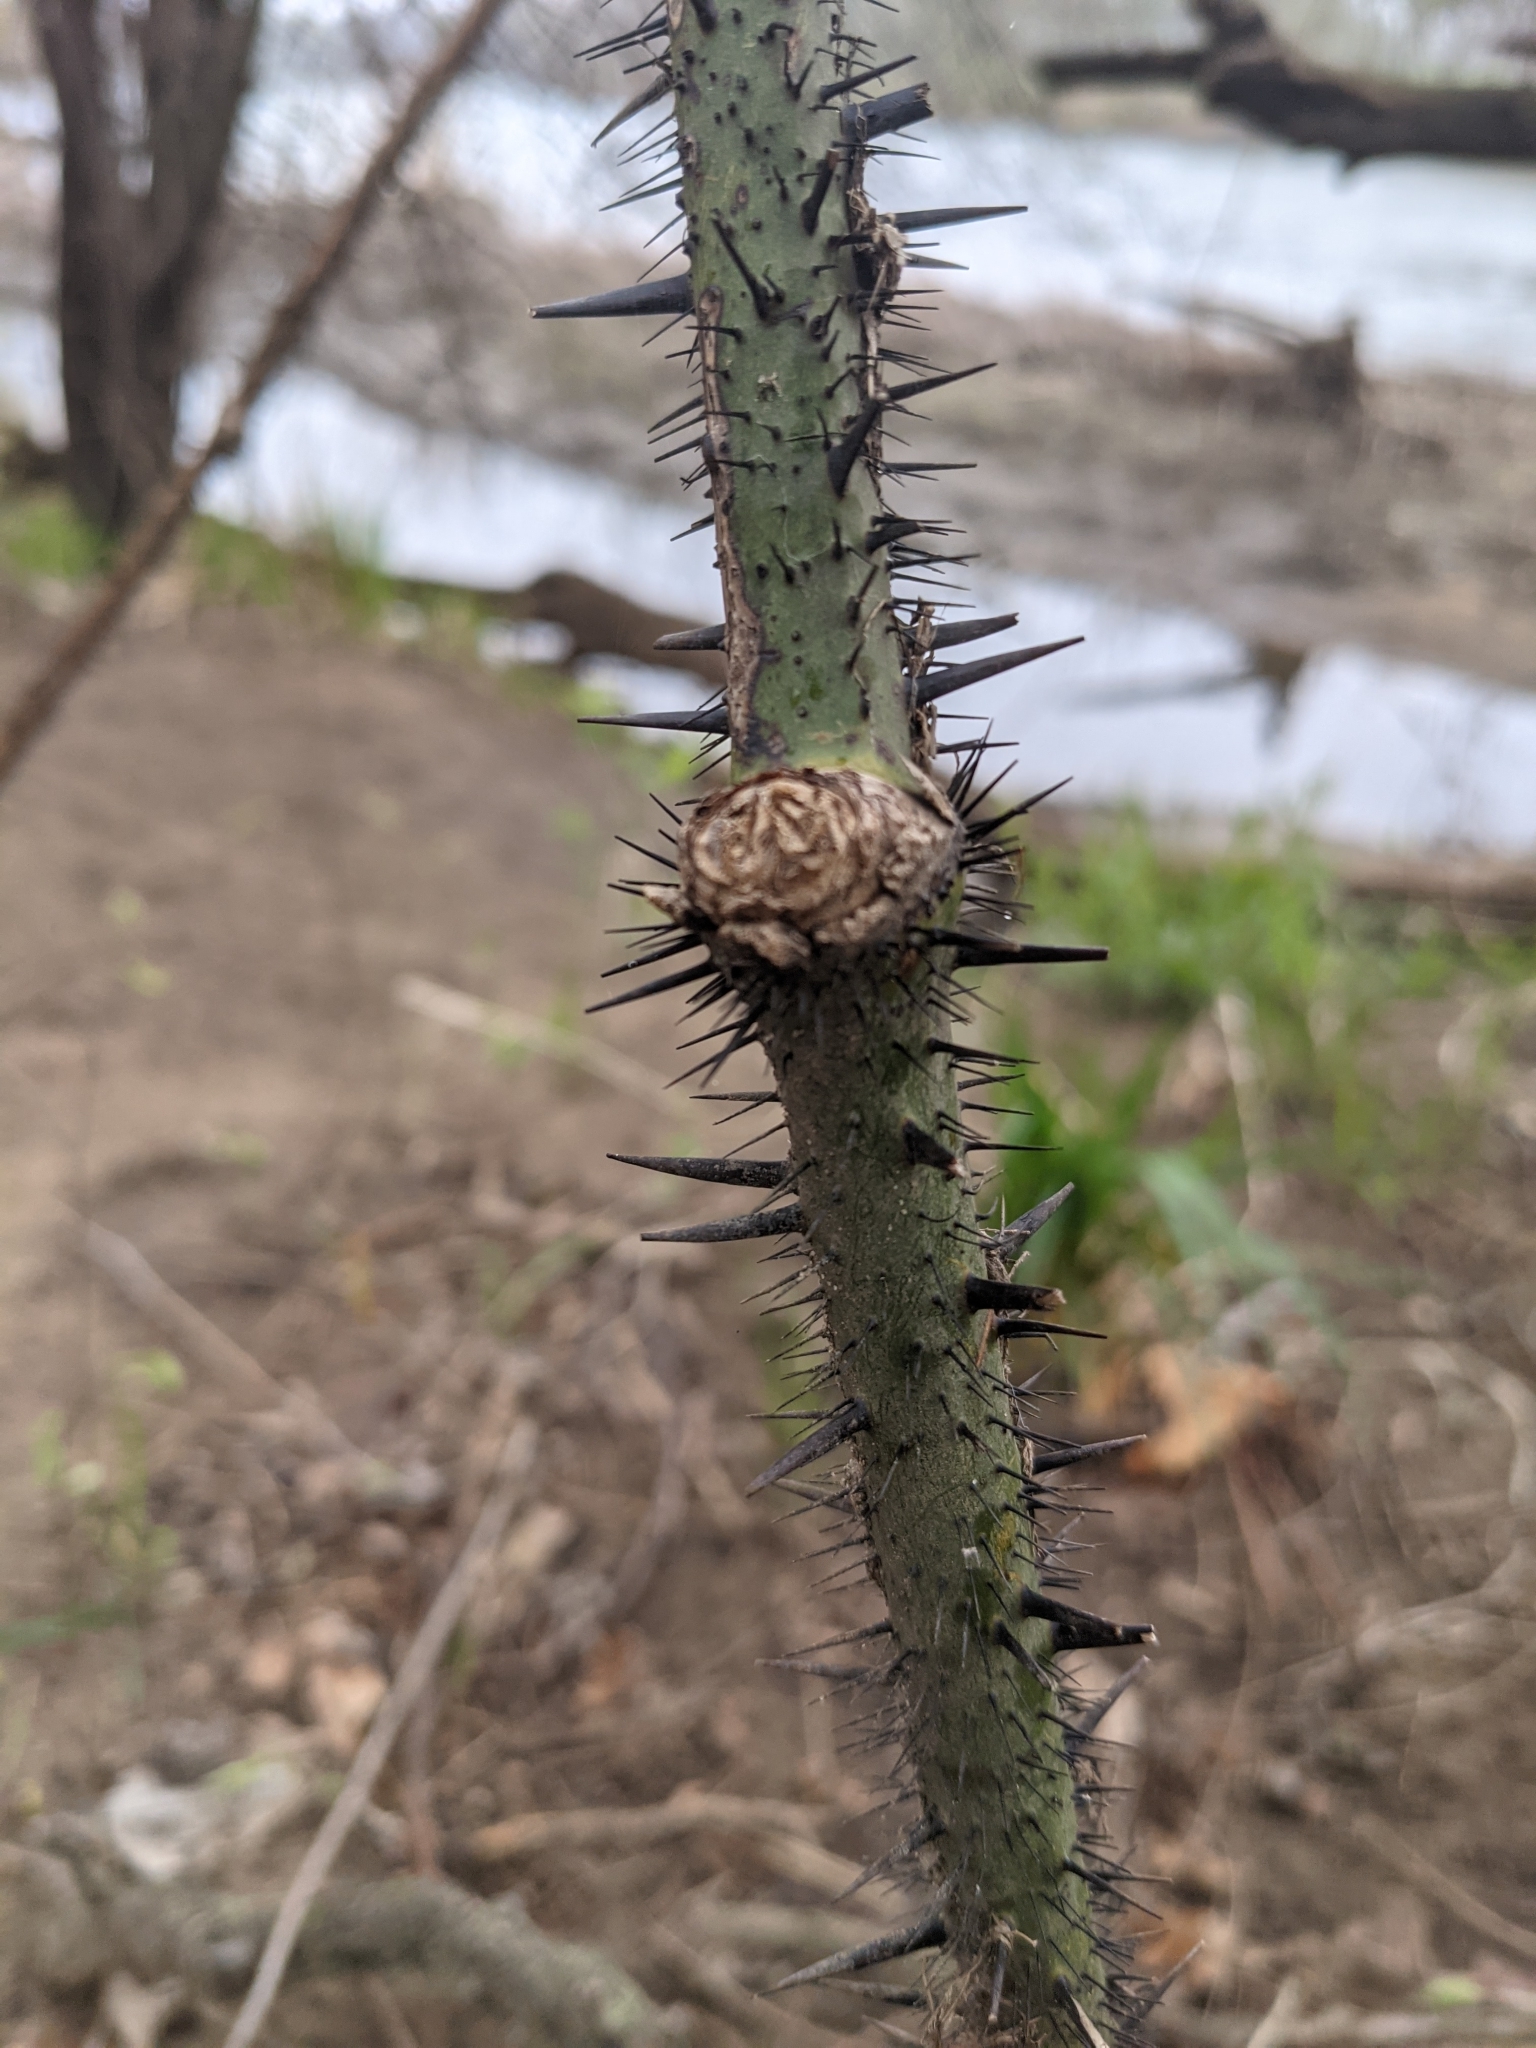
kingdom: Plantae
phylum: Tracheophyta
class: Liliopsida
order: Liliales
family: Smilacaceae
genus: Smilax
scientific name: Smilax tamnoides
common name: Hellfetter
